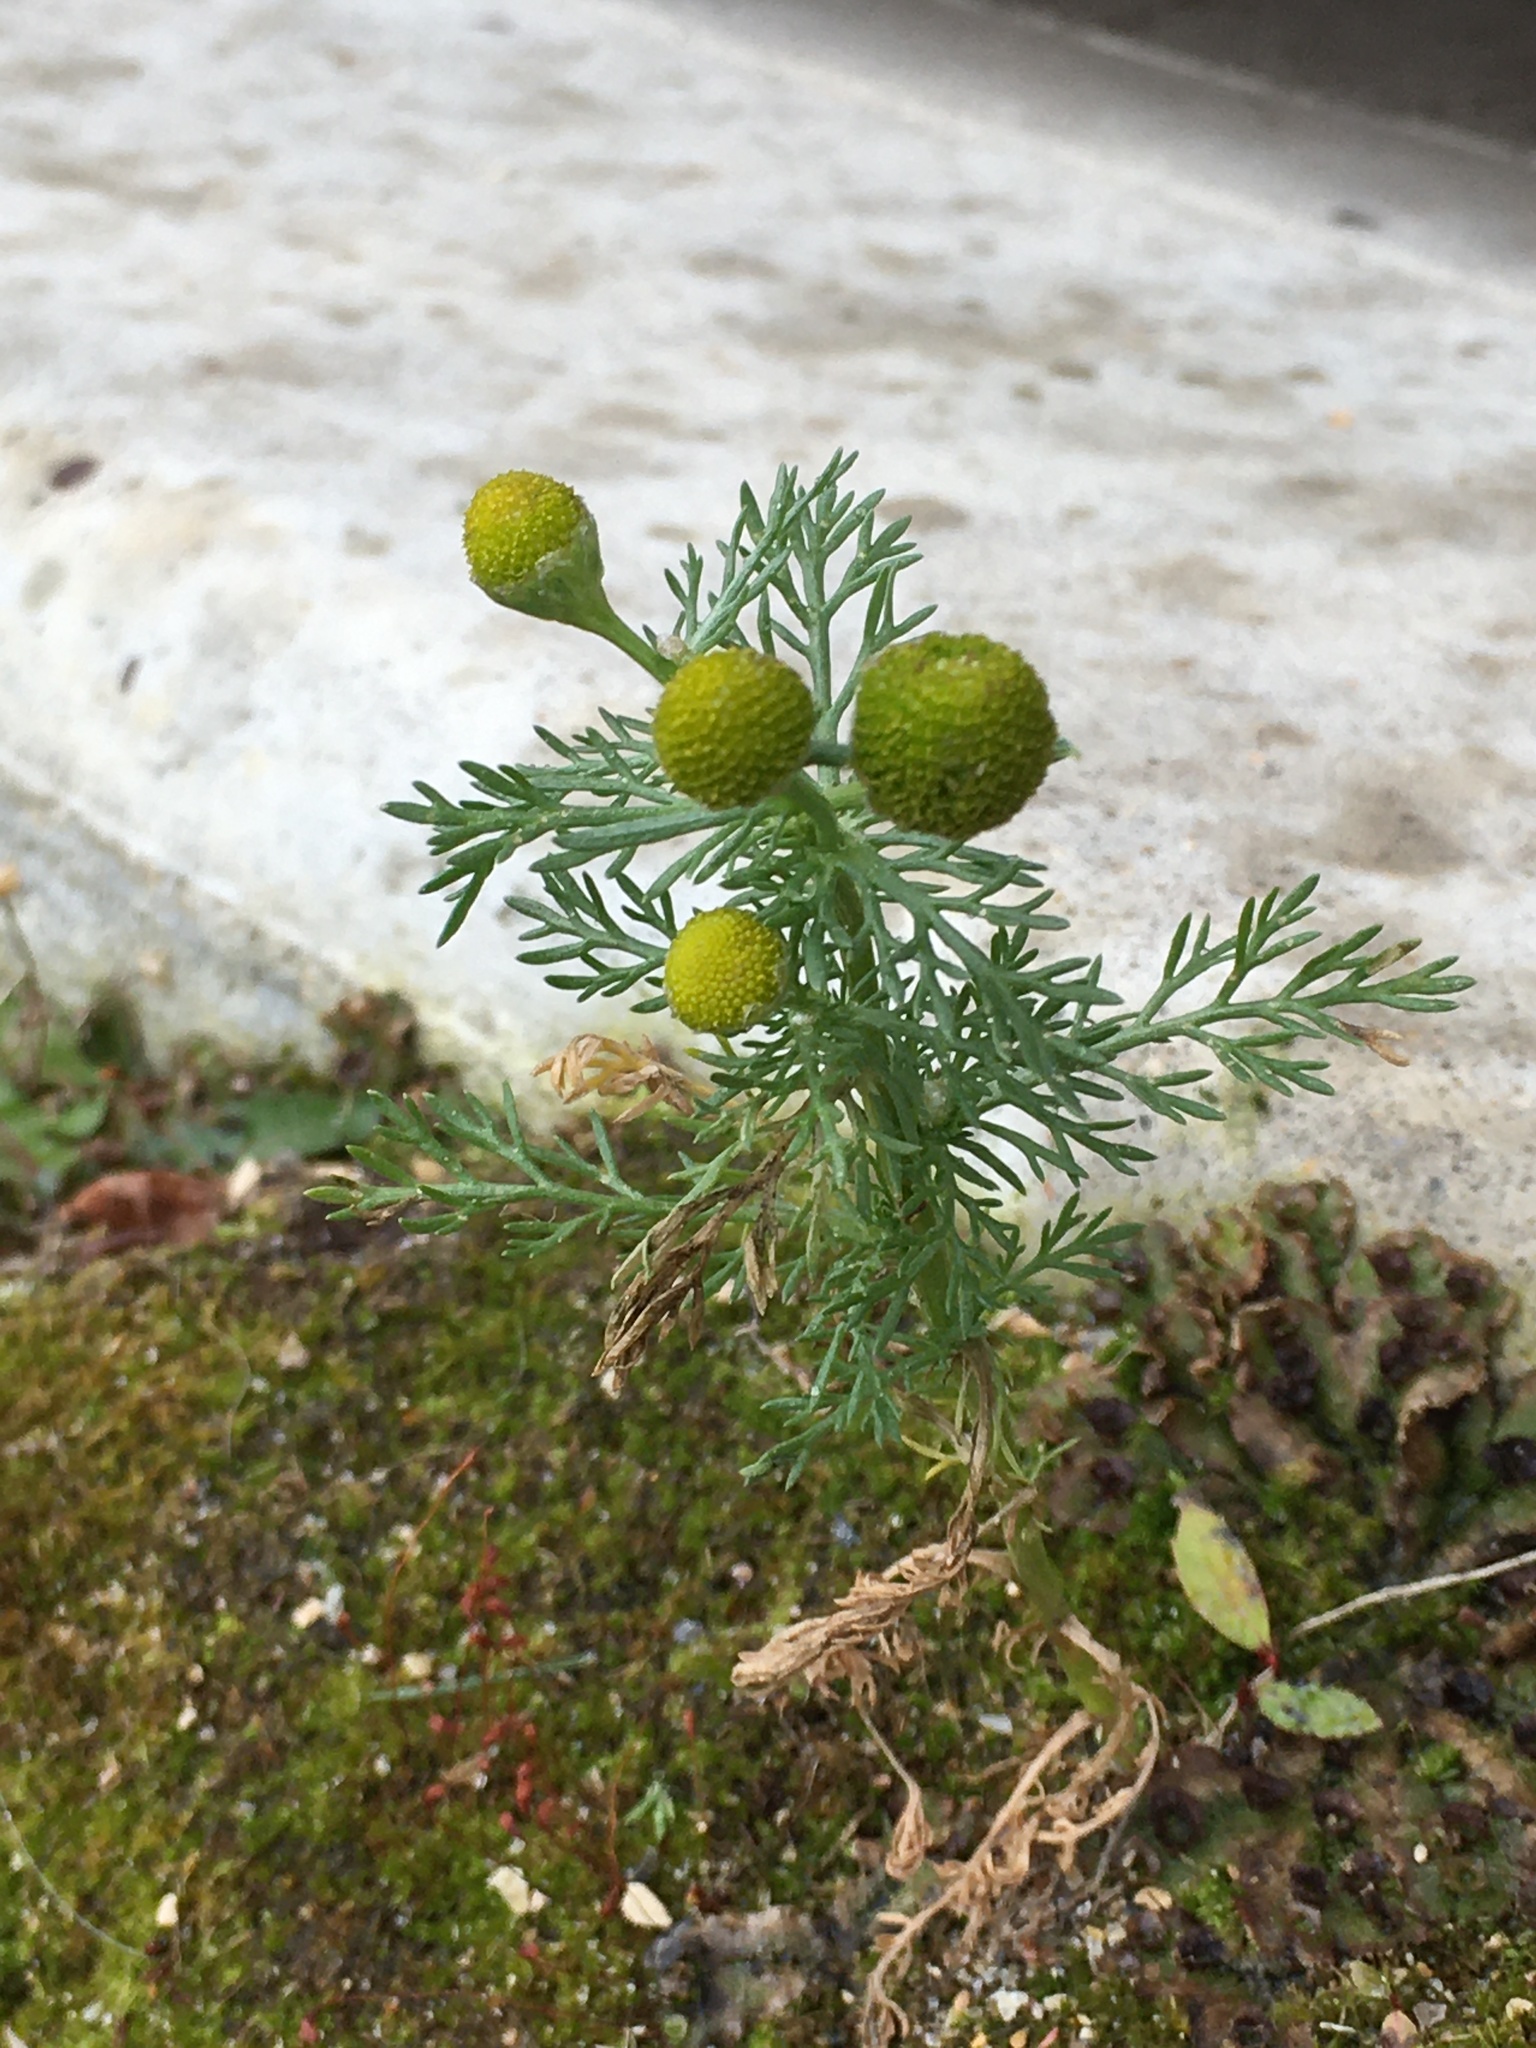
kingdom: Plantae
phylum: Tracheophyta
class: Magnoliopsida
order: Asterales
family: Asteraceae
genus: Matricaria
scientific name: Matricaria discoidea
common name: Disc mayweed
